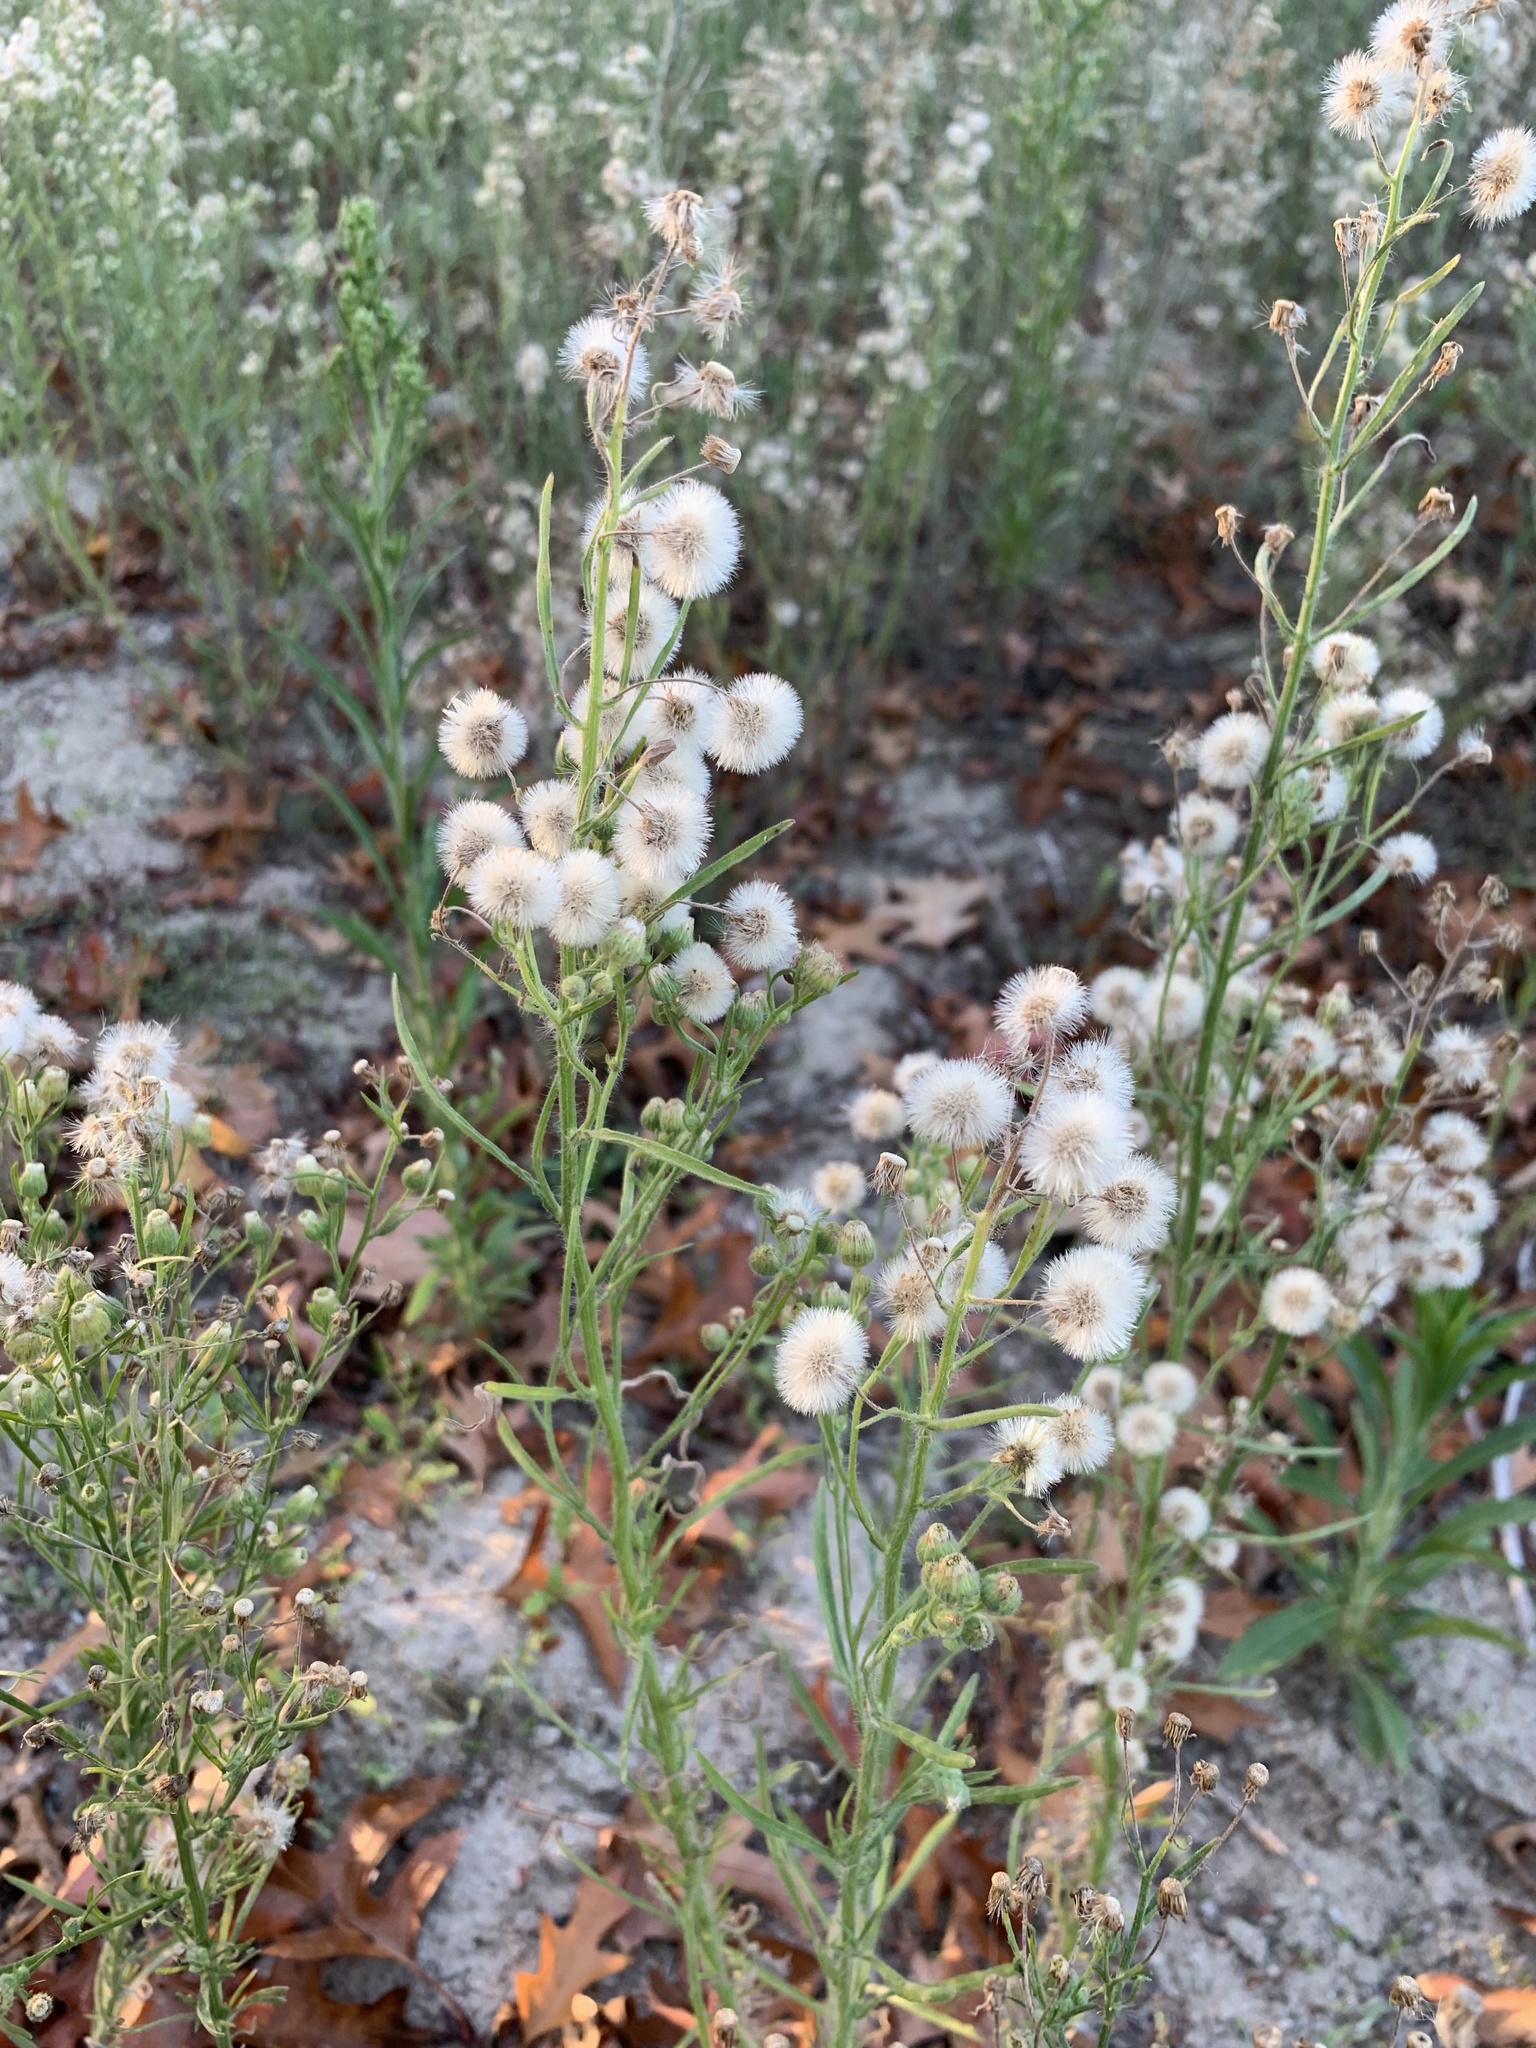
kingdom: Plantae
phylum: Tracheophyta
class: Magnoliopsida
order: Asterales
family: Asteraceae
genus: Erigeron
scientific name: Erigeron bonariensis
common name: Argentine fleabane
